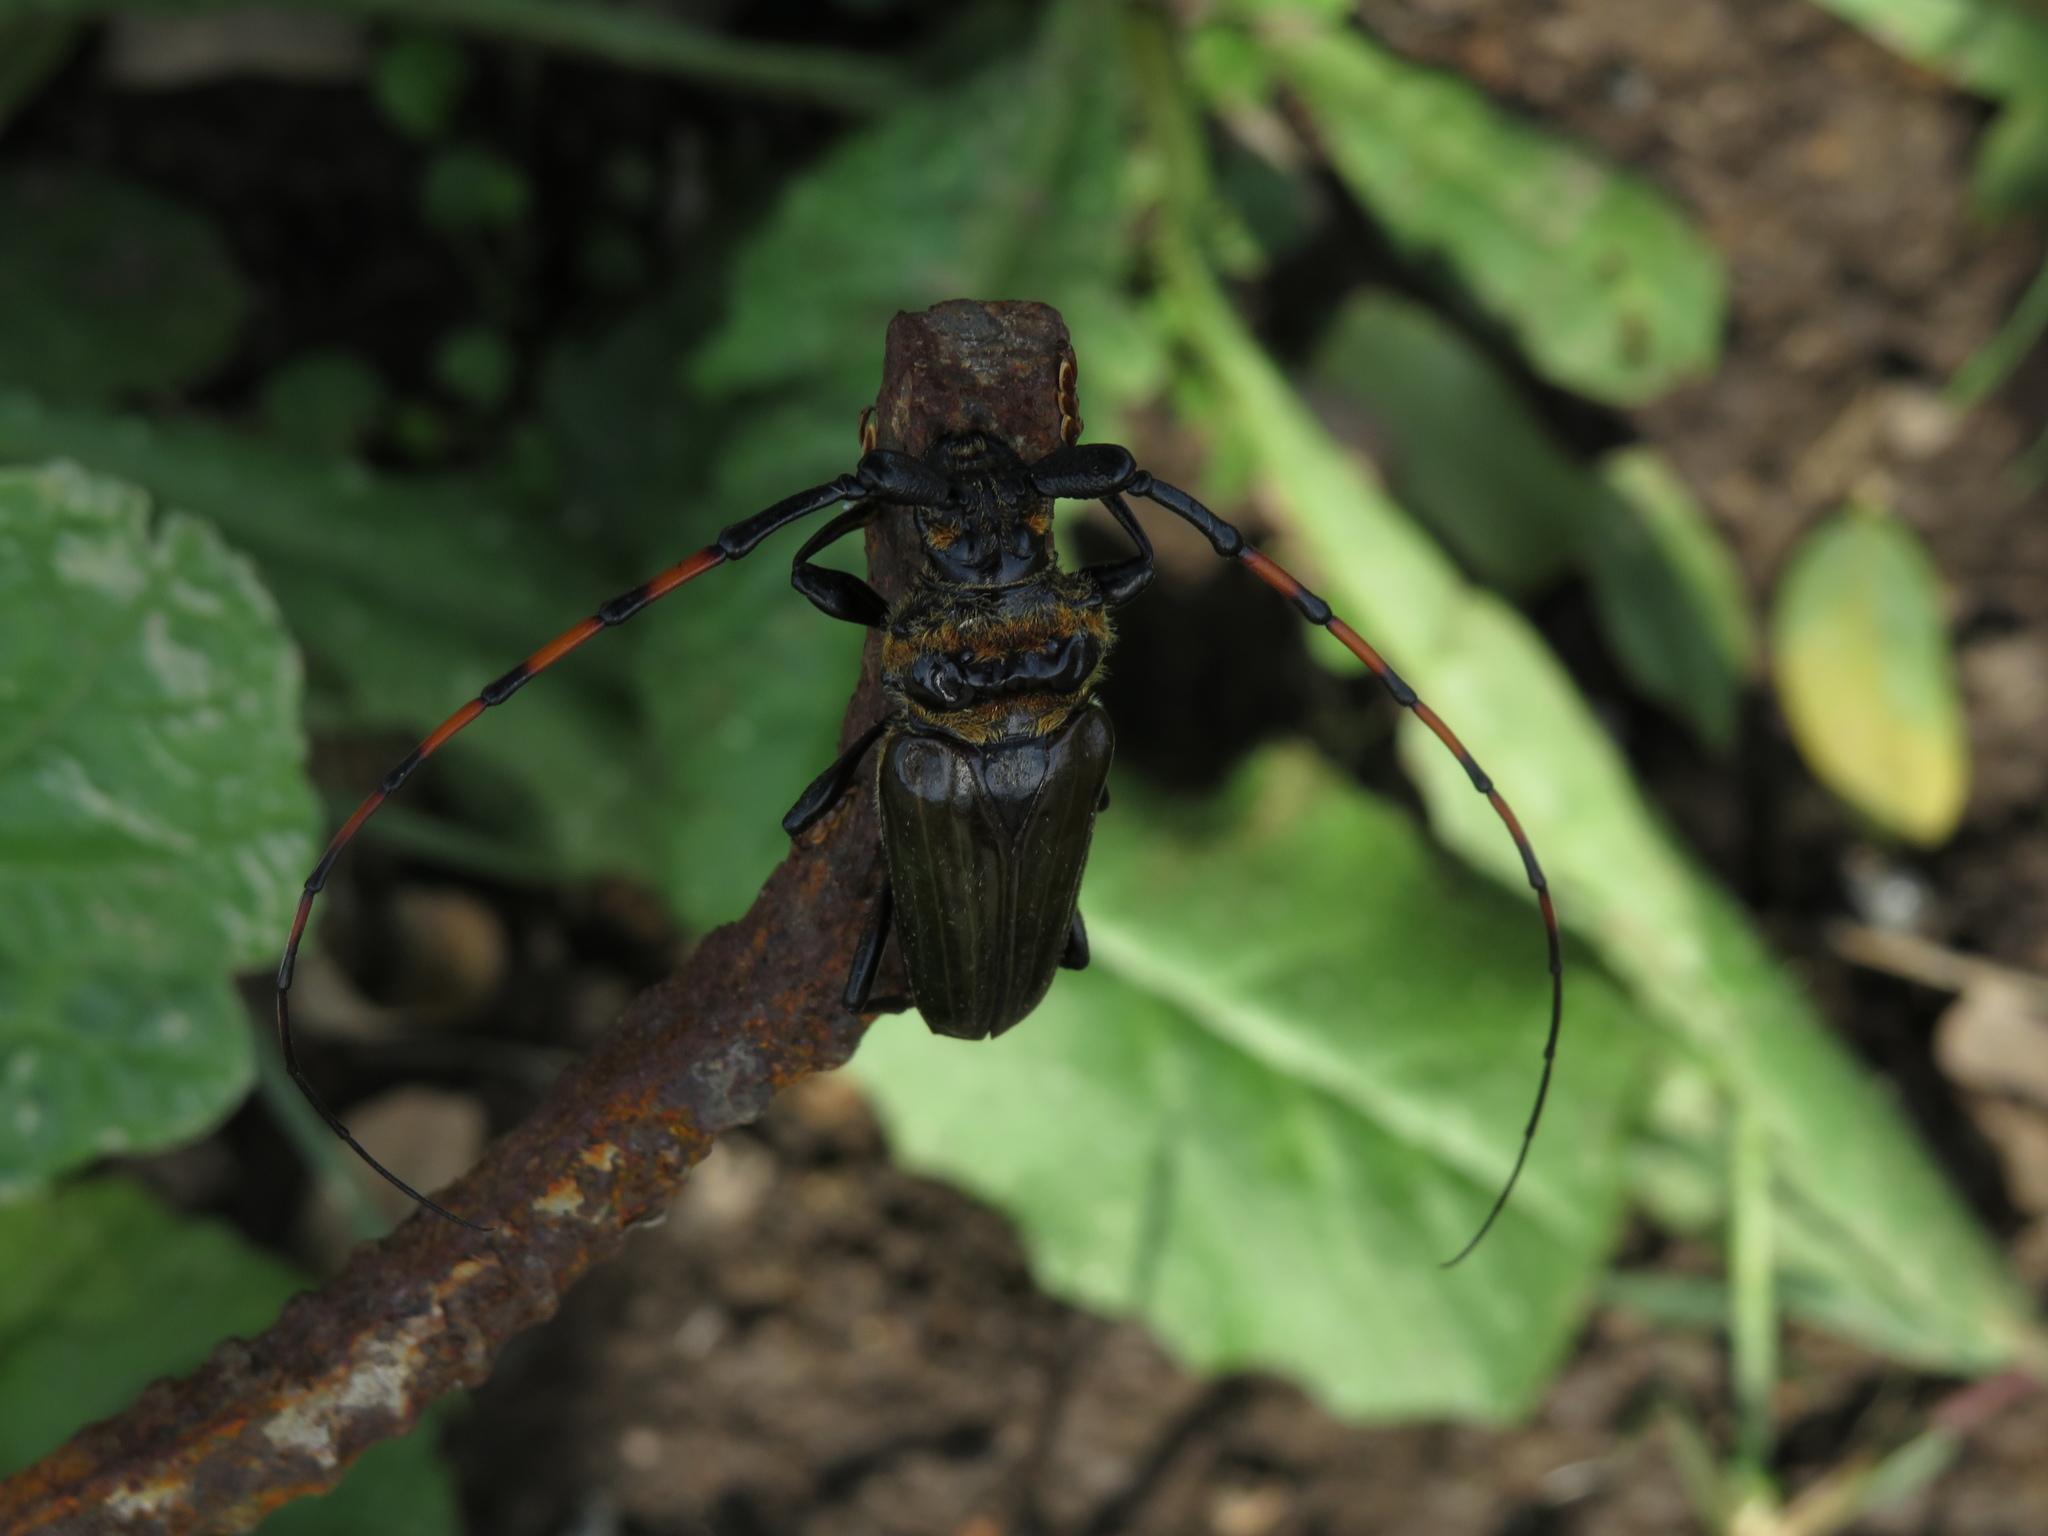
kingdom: Animalia
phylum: Arthropoda
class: Insecta
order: Coleoptera
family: Cerambycidae
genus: Retrachydes
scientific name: Retrachydes thoracicus
